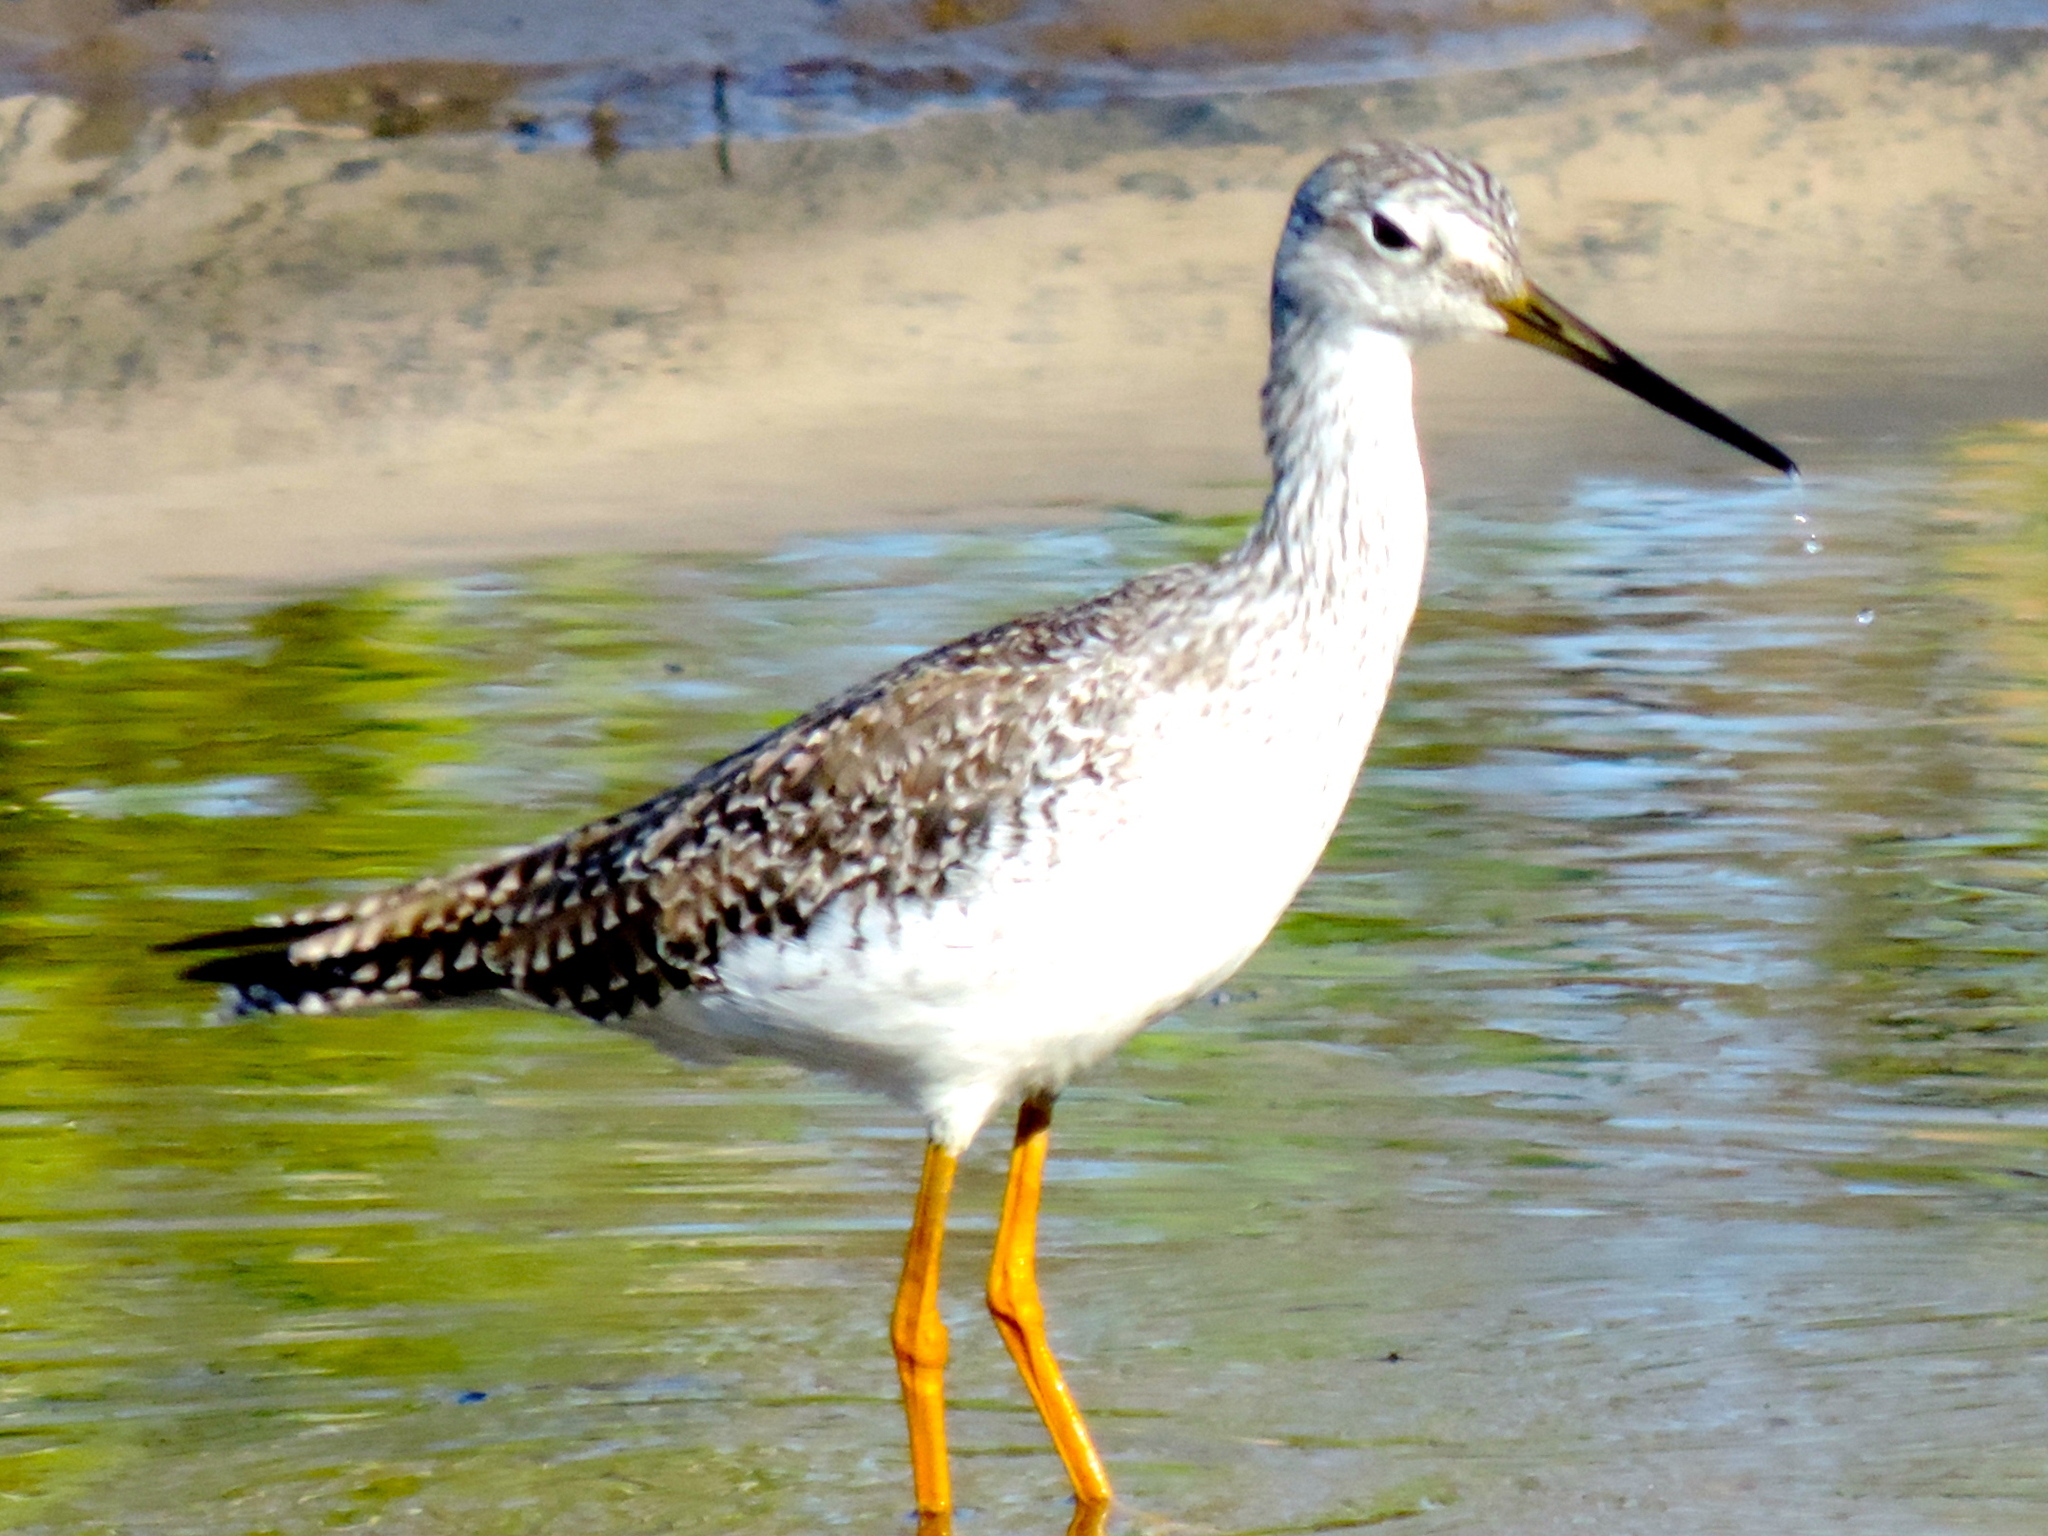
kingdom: Animalia
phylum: Chordata
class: Aves
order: Charadriiformes
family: Scolopacidae
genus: Tringa
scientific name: Tringa melanoleuca
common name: Greater yellowlegs
